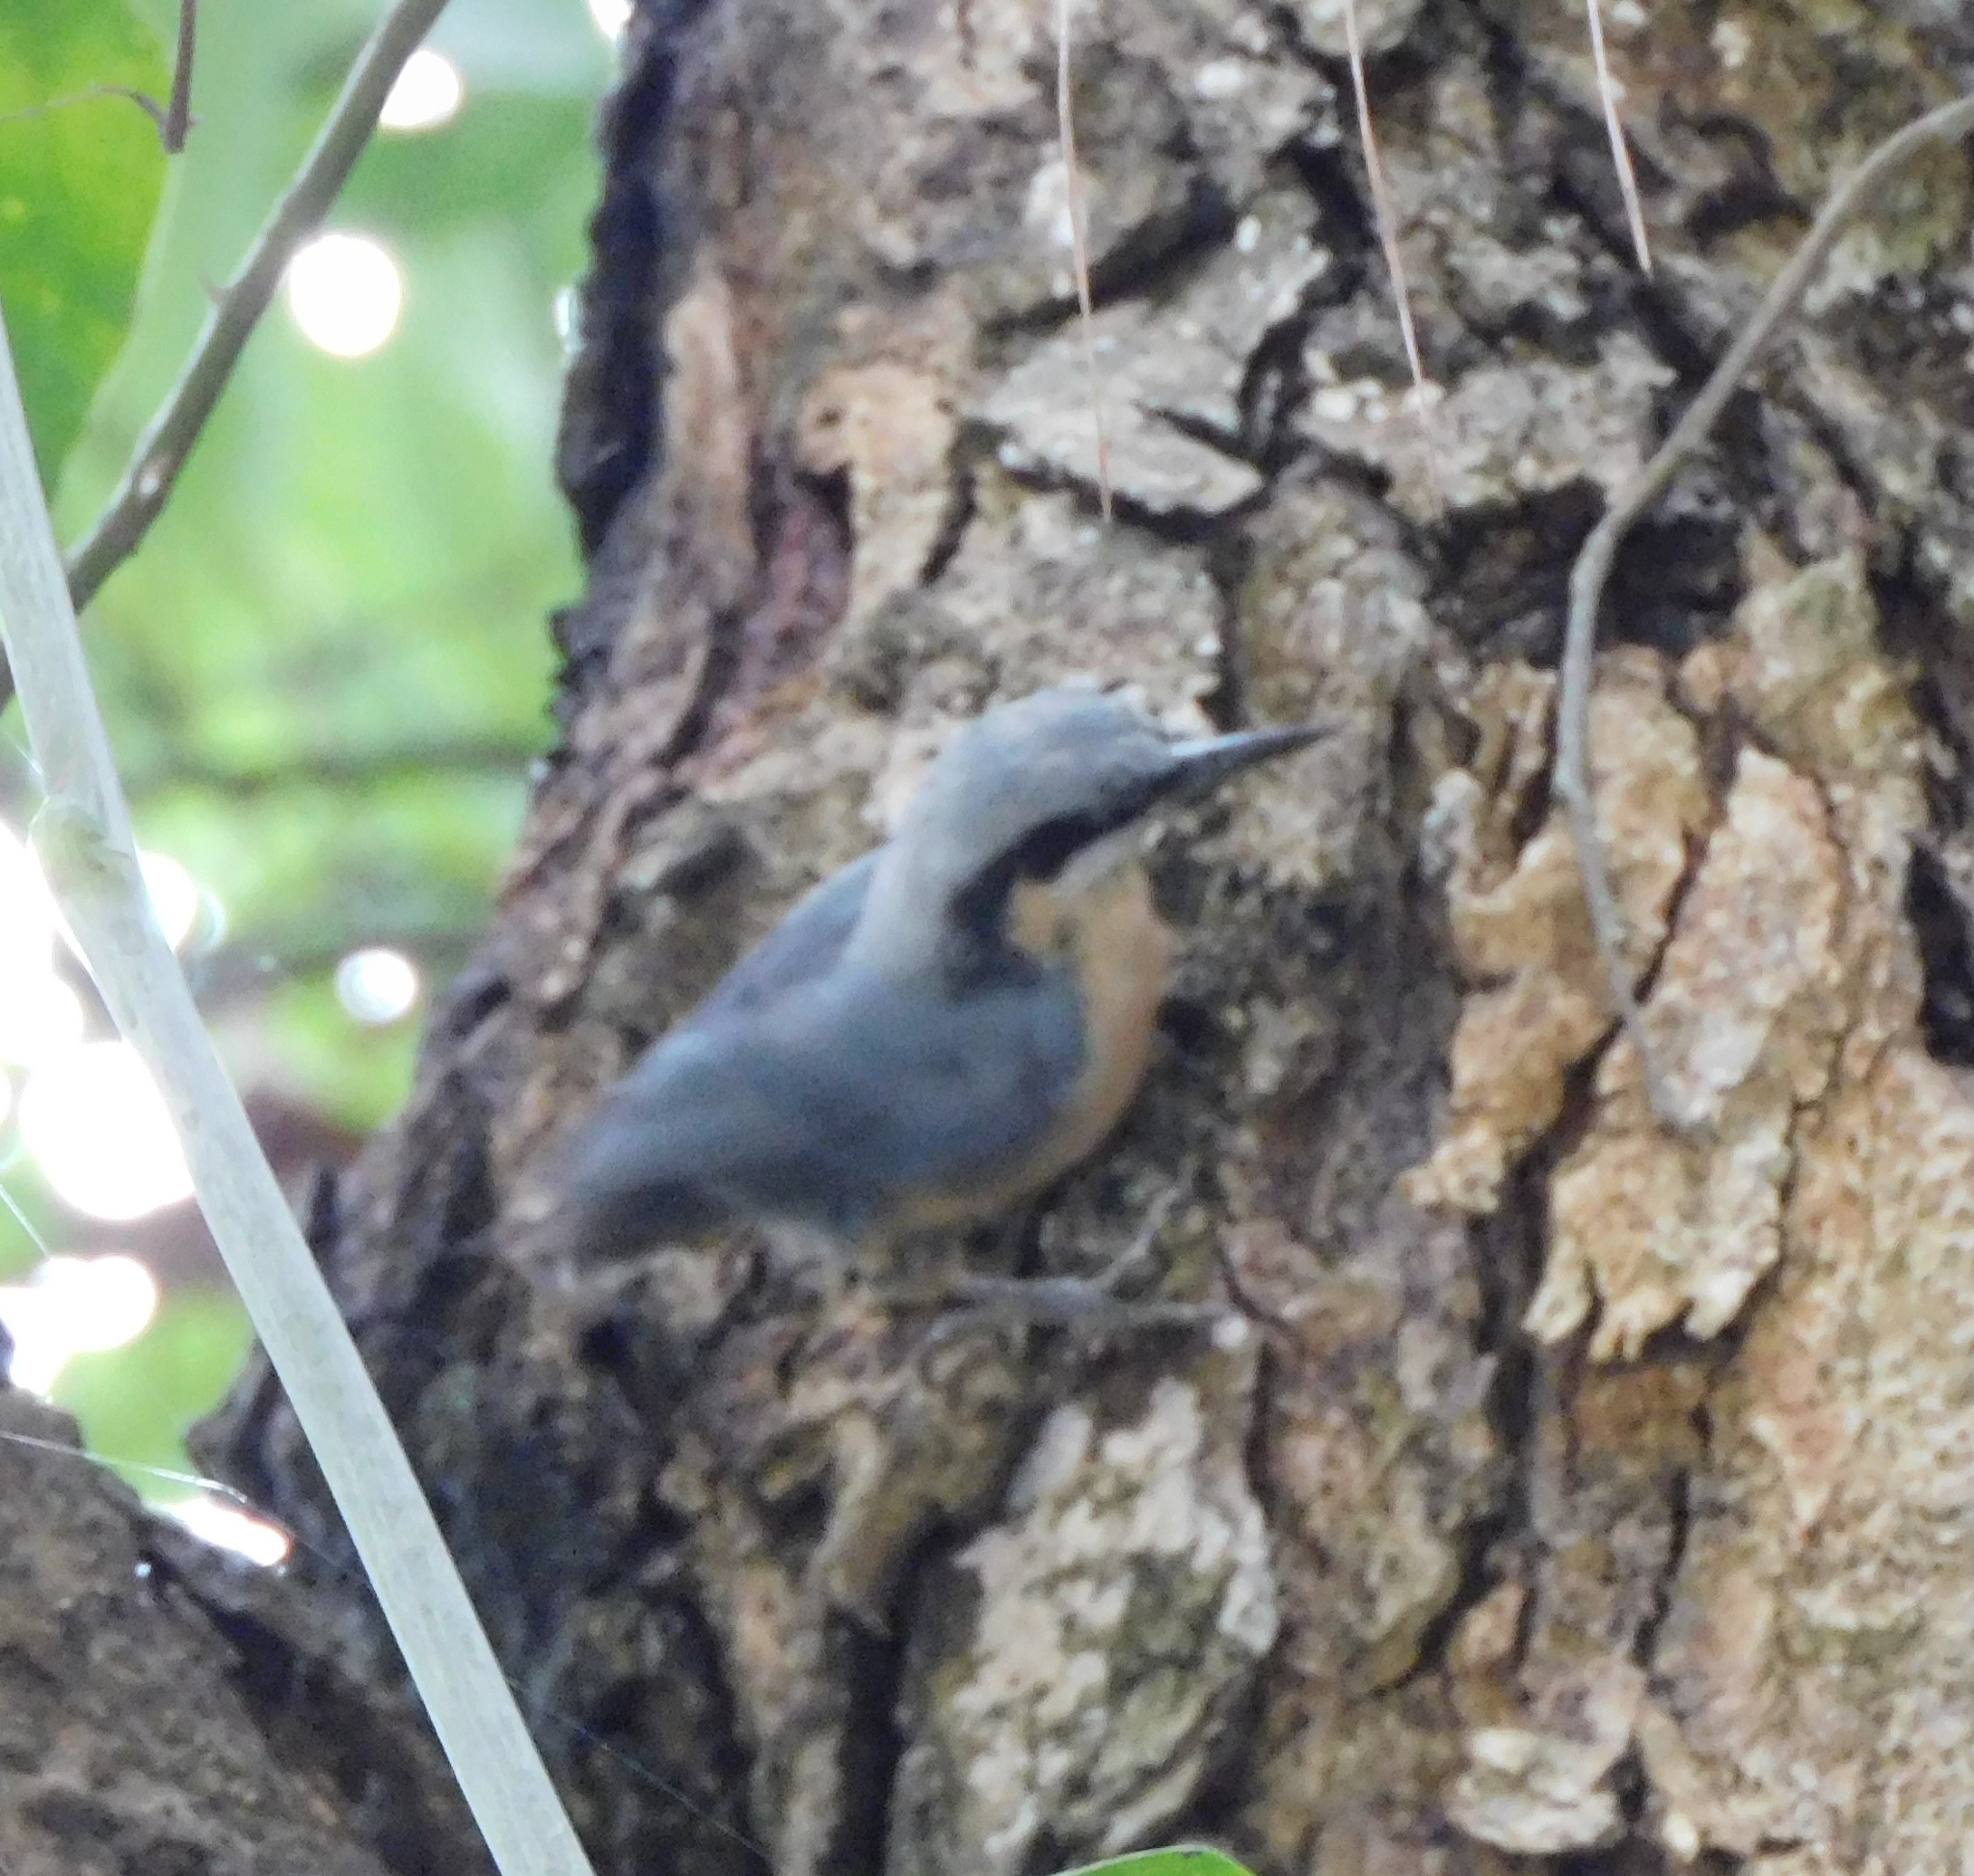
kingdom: Animalia
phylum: Chordata
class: Aves
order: Passeriformes
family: Sittidae
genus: Sitta
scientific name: Sitta cinnamoventris
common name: Chestnut-bellied nuthatch
